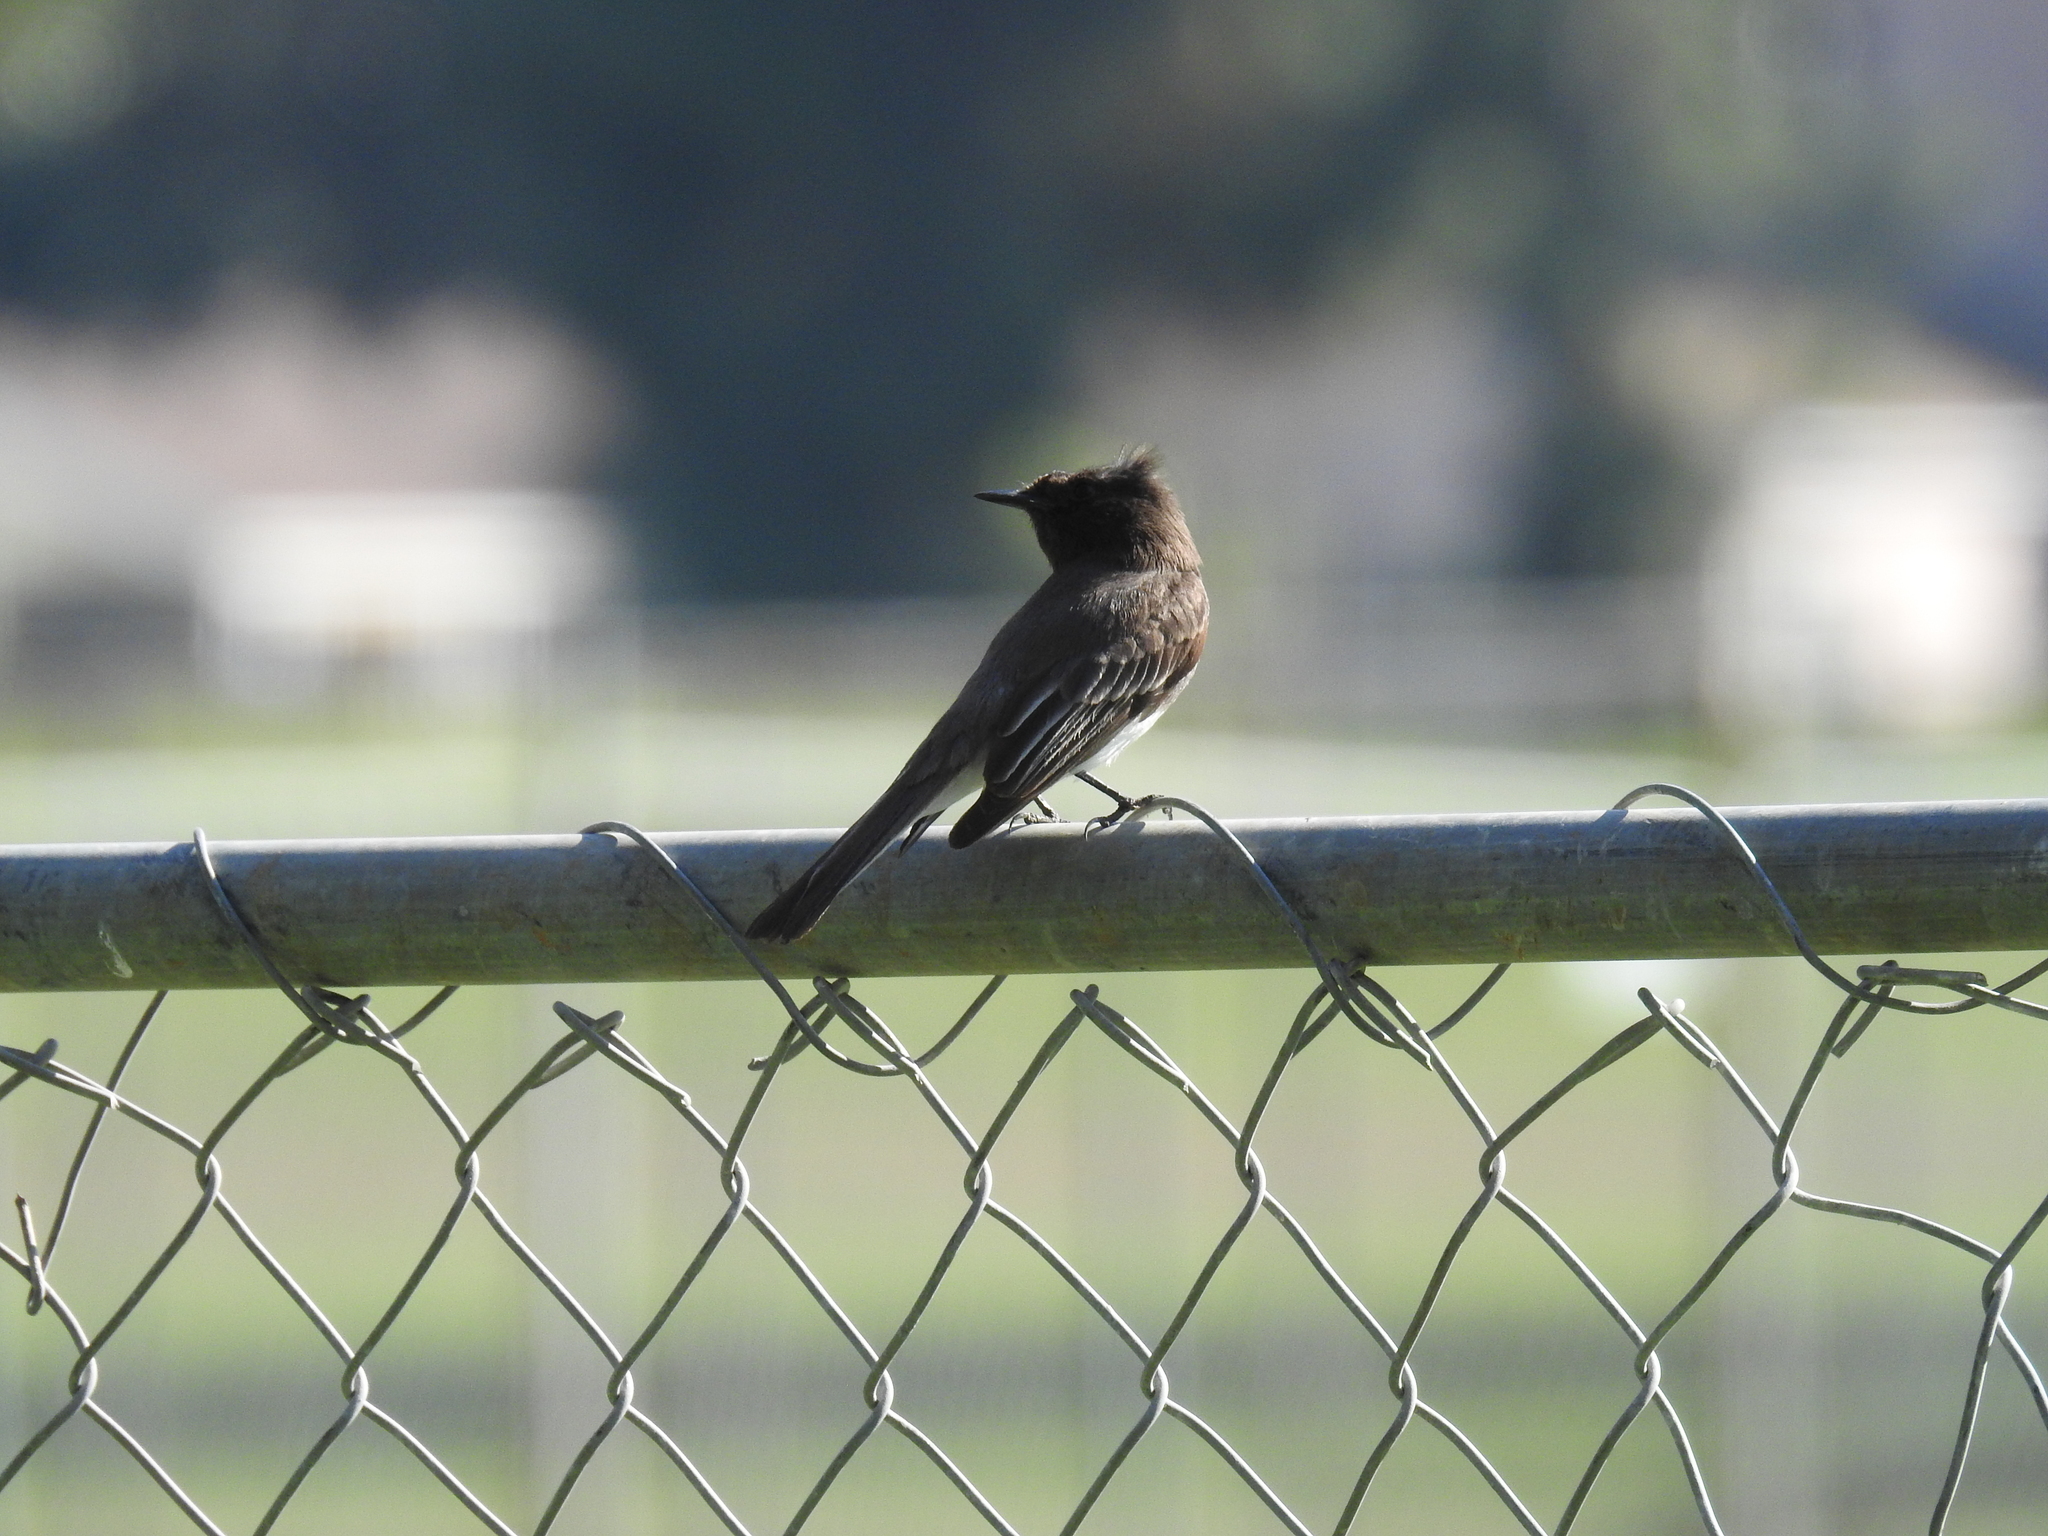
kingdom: Animalia
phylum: Chordata
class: Aves
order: Passeriformes
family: Tyrannidae
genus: Sayornis
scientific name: Sayornis nigricans
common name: Black phoebe
